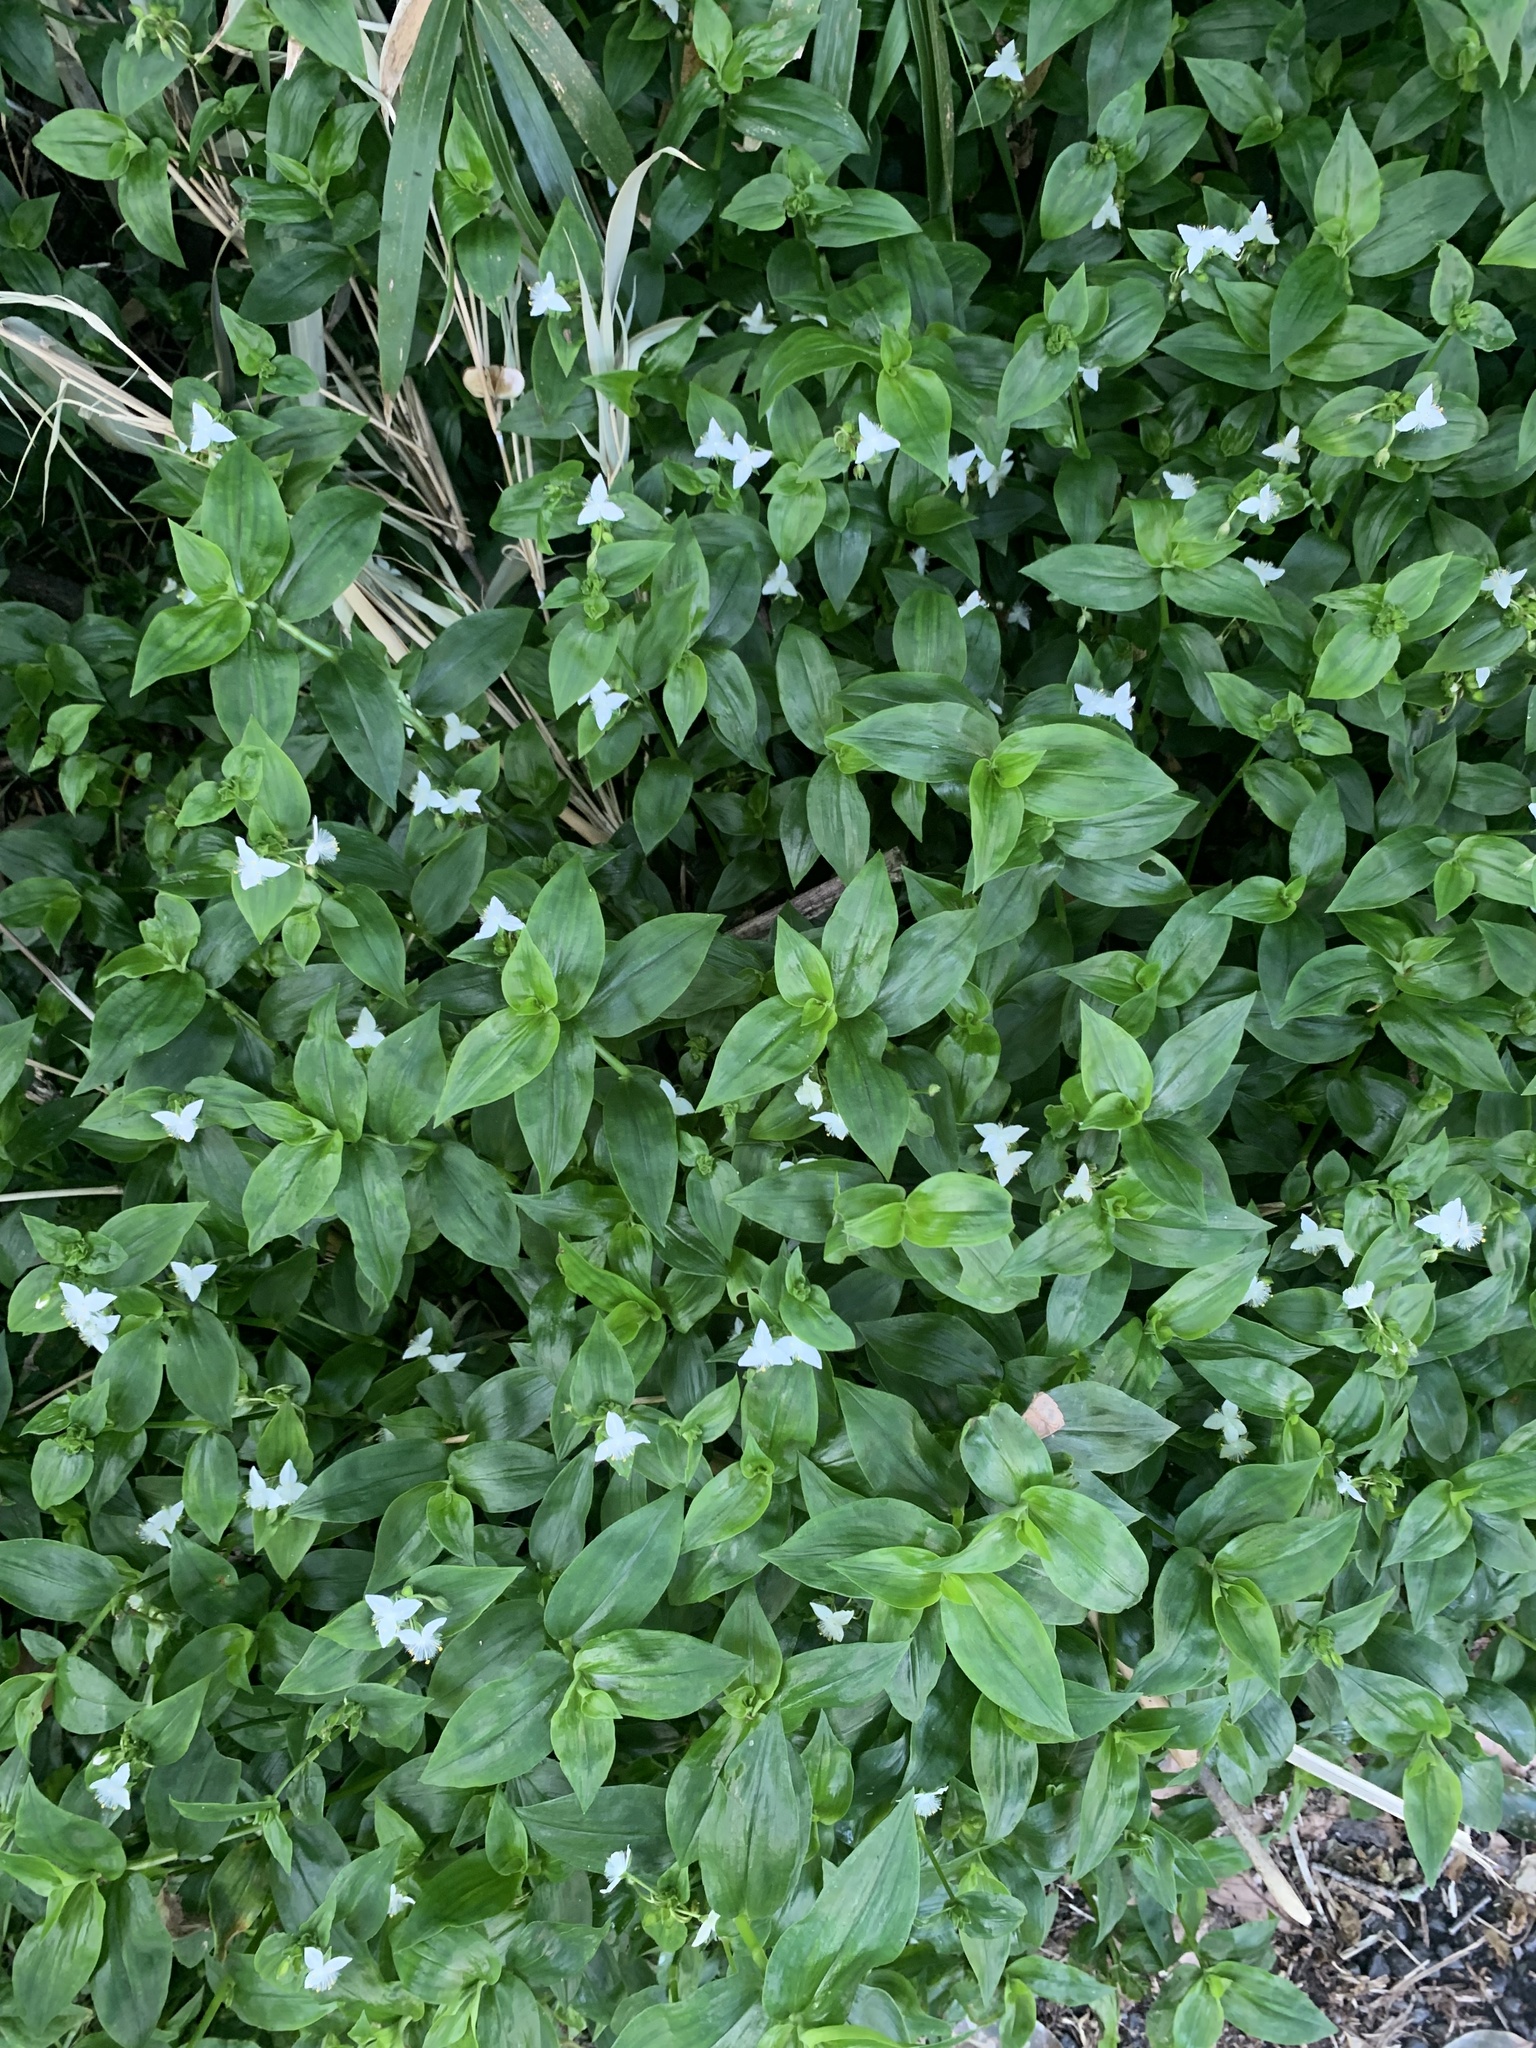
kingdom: Plantae
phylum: Tracheophyta
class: Liliopsida
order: Commelinales
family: Commelinaceae
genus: Tradescantia
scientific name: Tradescantia fluminensis
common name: Wandering-jew
